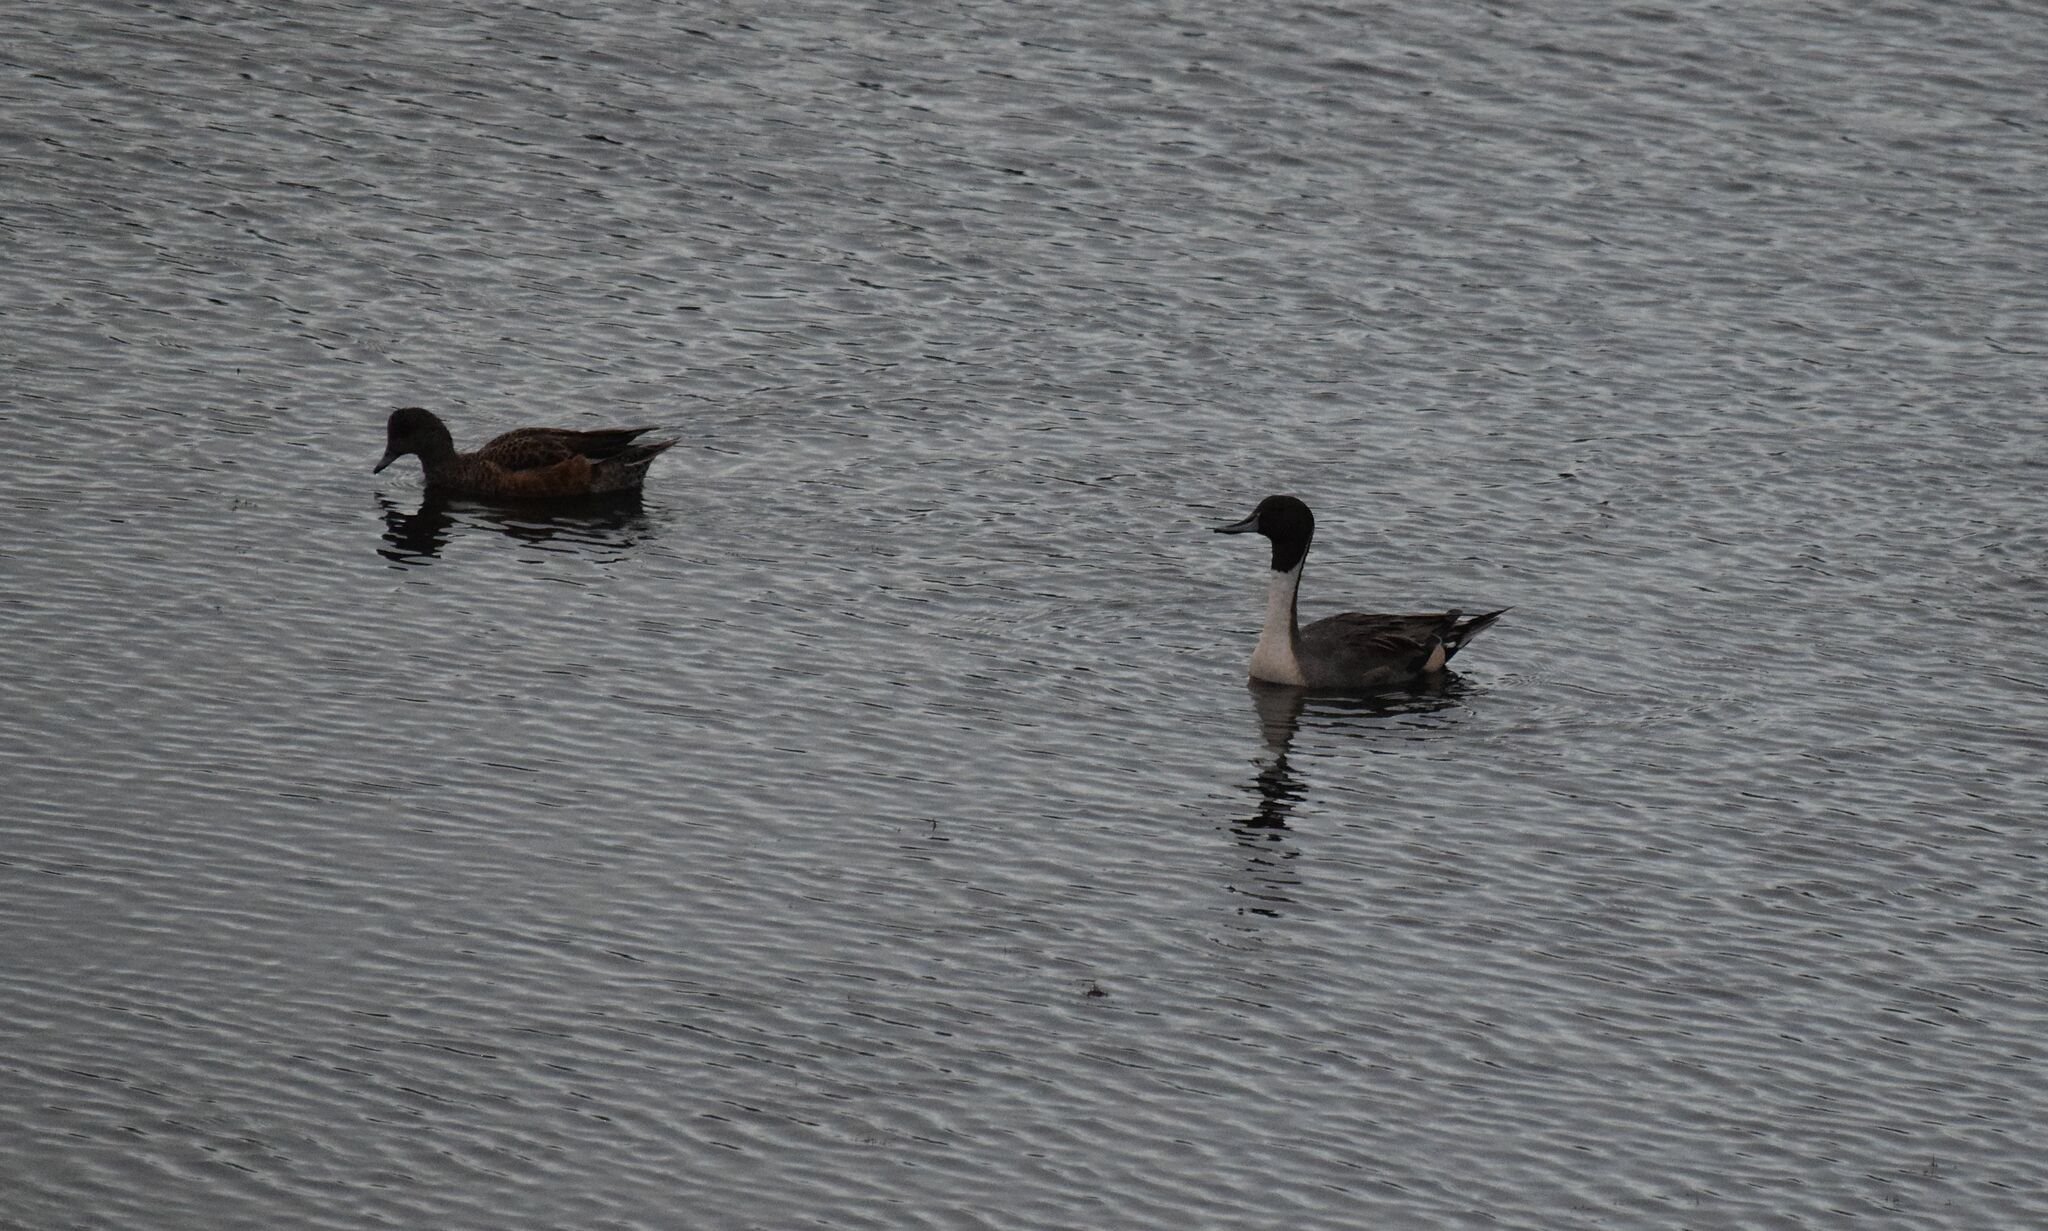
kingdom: Animalia
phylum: Chordata
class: Aves
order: Anseriformes
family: Anatidae
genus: Anas
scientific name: Anas acuta
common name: Northern pintail
